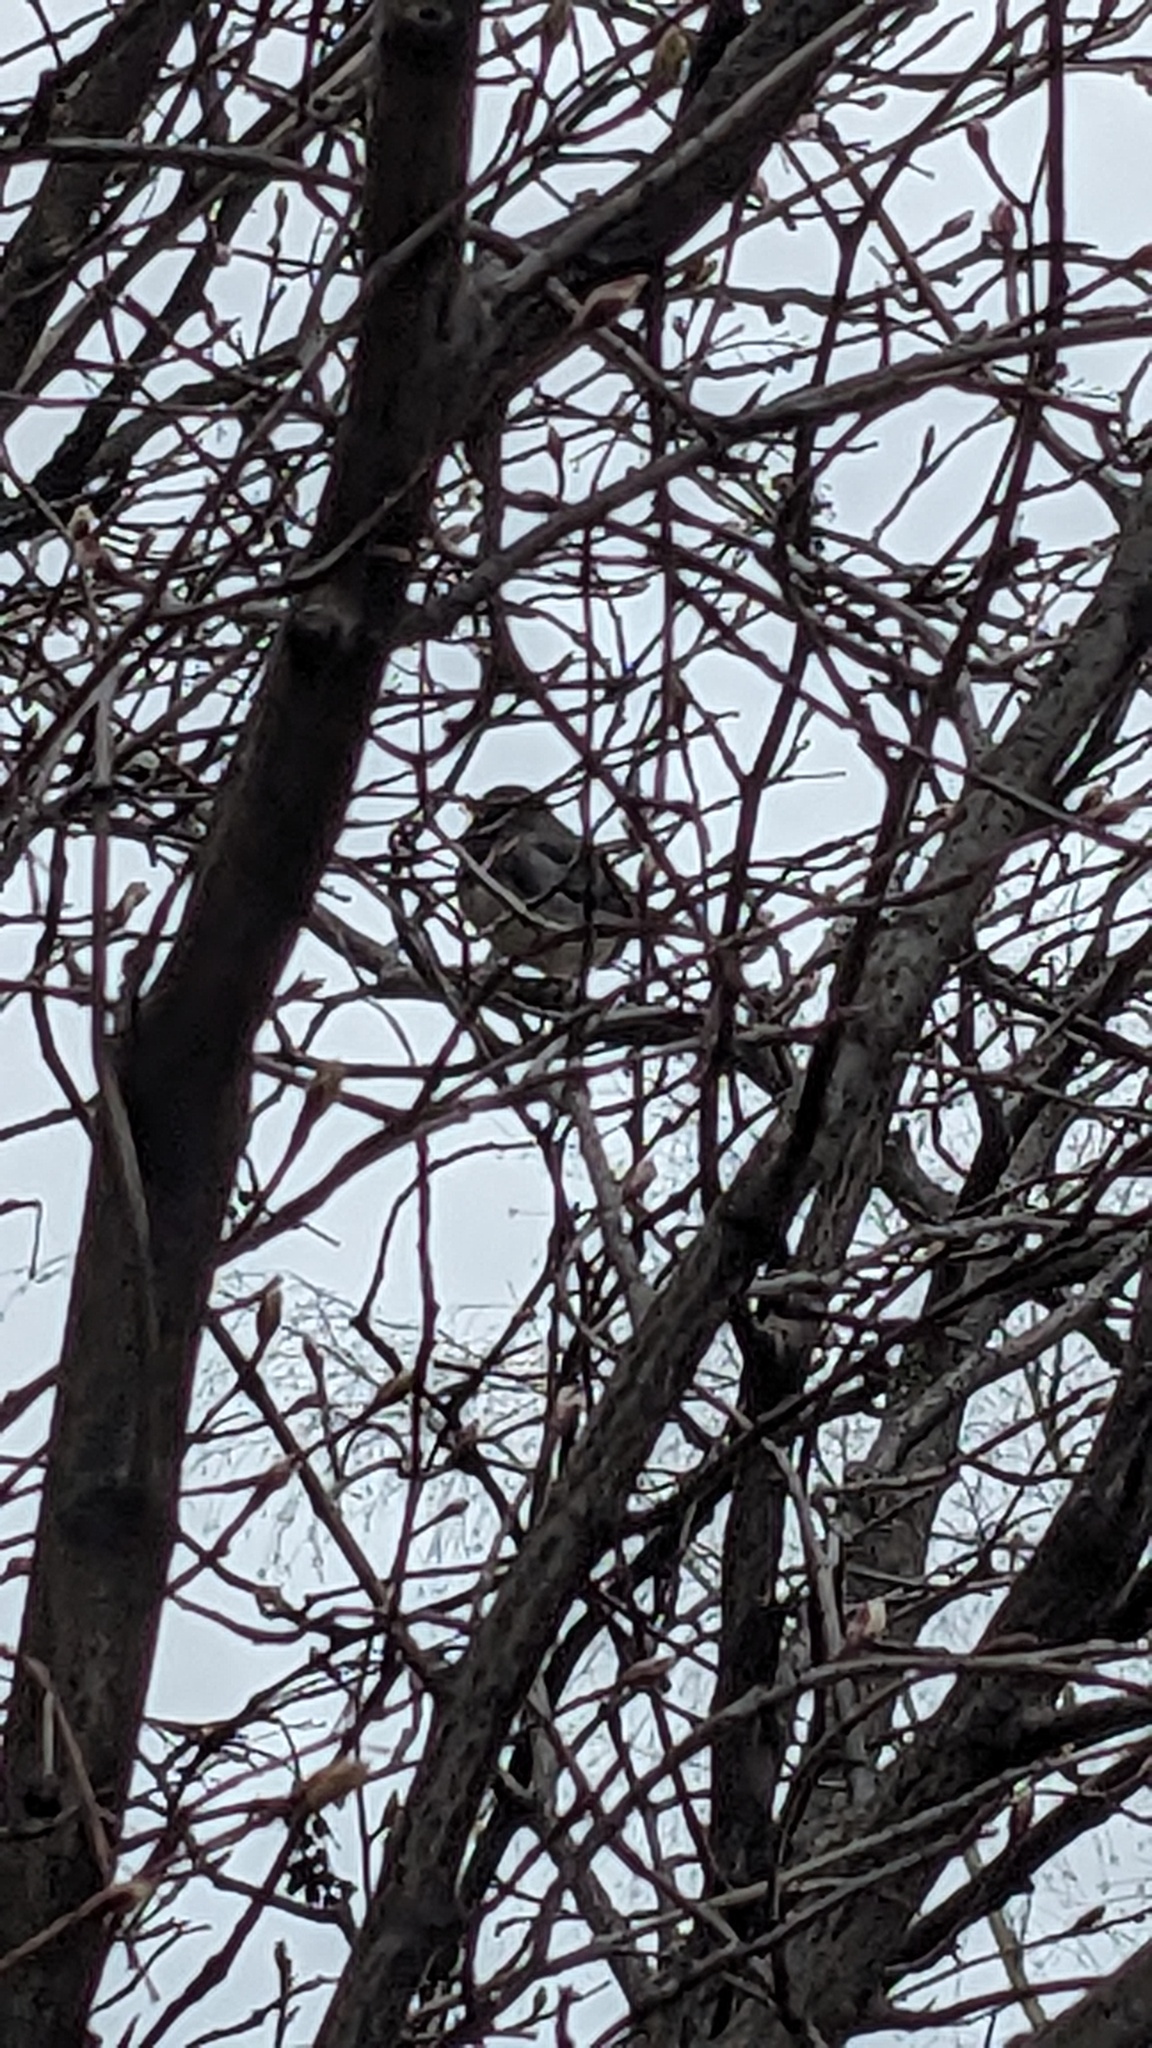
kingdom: Animalia
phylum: Chordata
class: Aves
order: Passeriformes
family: Passerellidae
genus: Junco
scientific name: Junco hyemalis
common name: Dark-eyed junco
